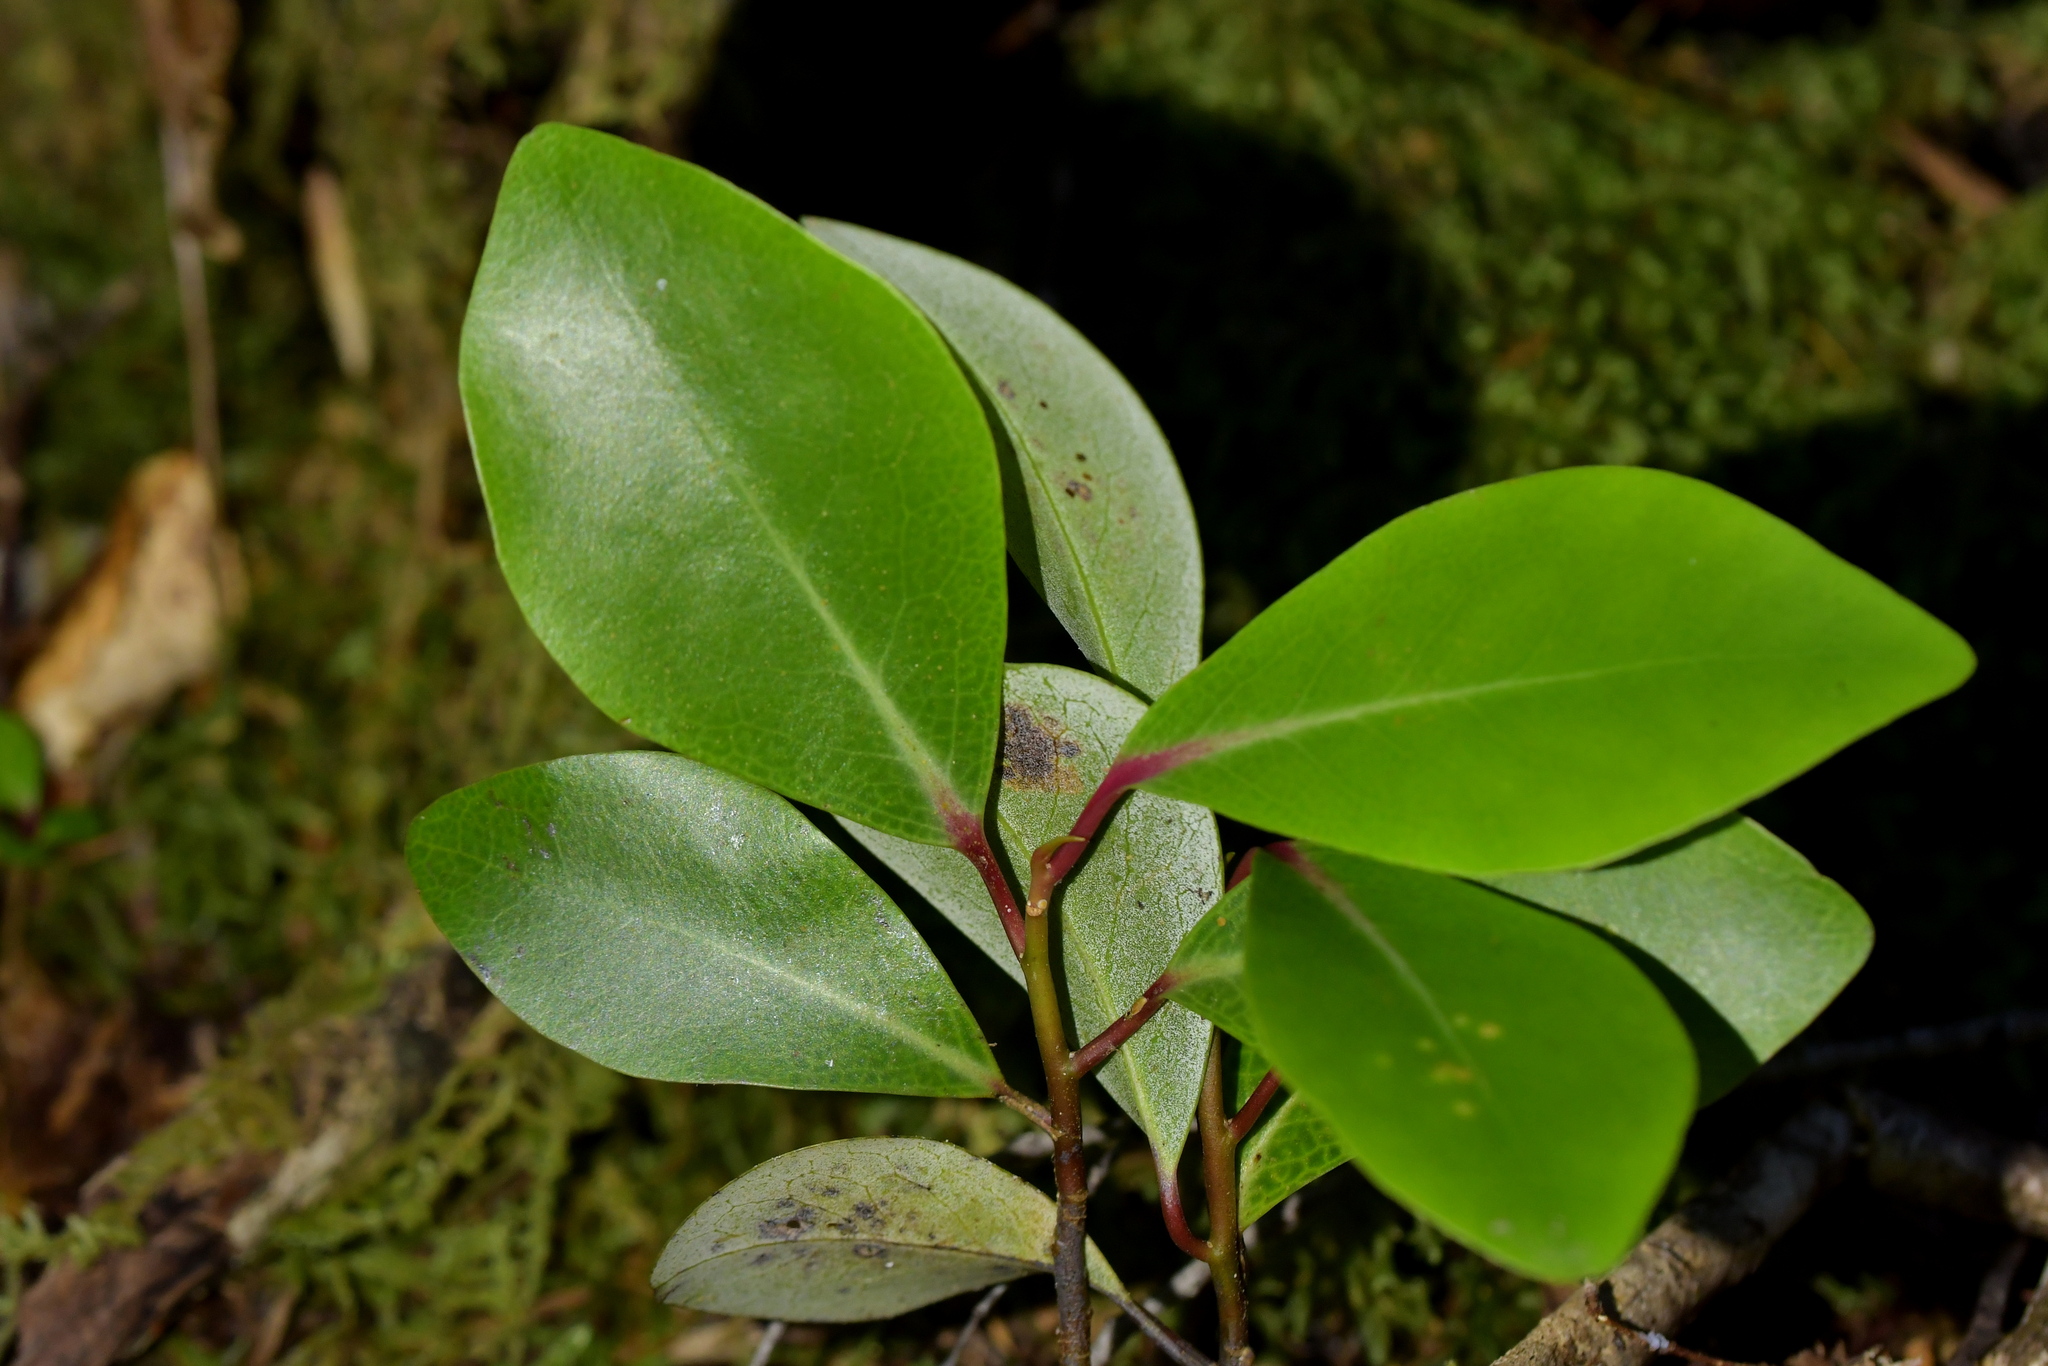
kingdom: Plantae
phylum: Tracheophyta
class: Magnoliopsida
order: Canellales
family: Winteraceae
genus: Pseudowintera
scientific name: Pseudowintera axillaris
